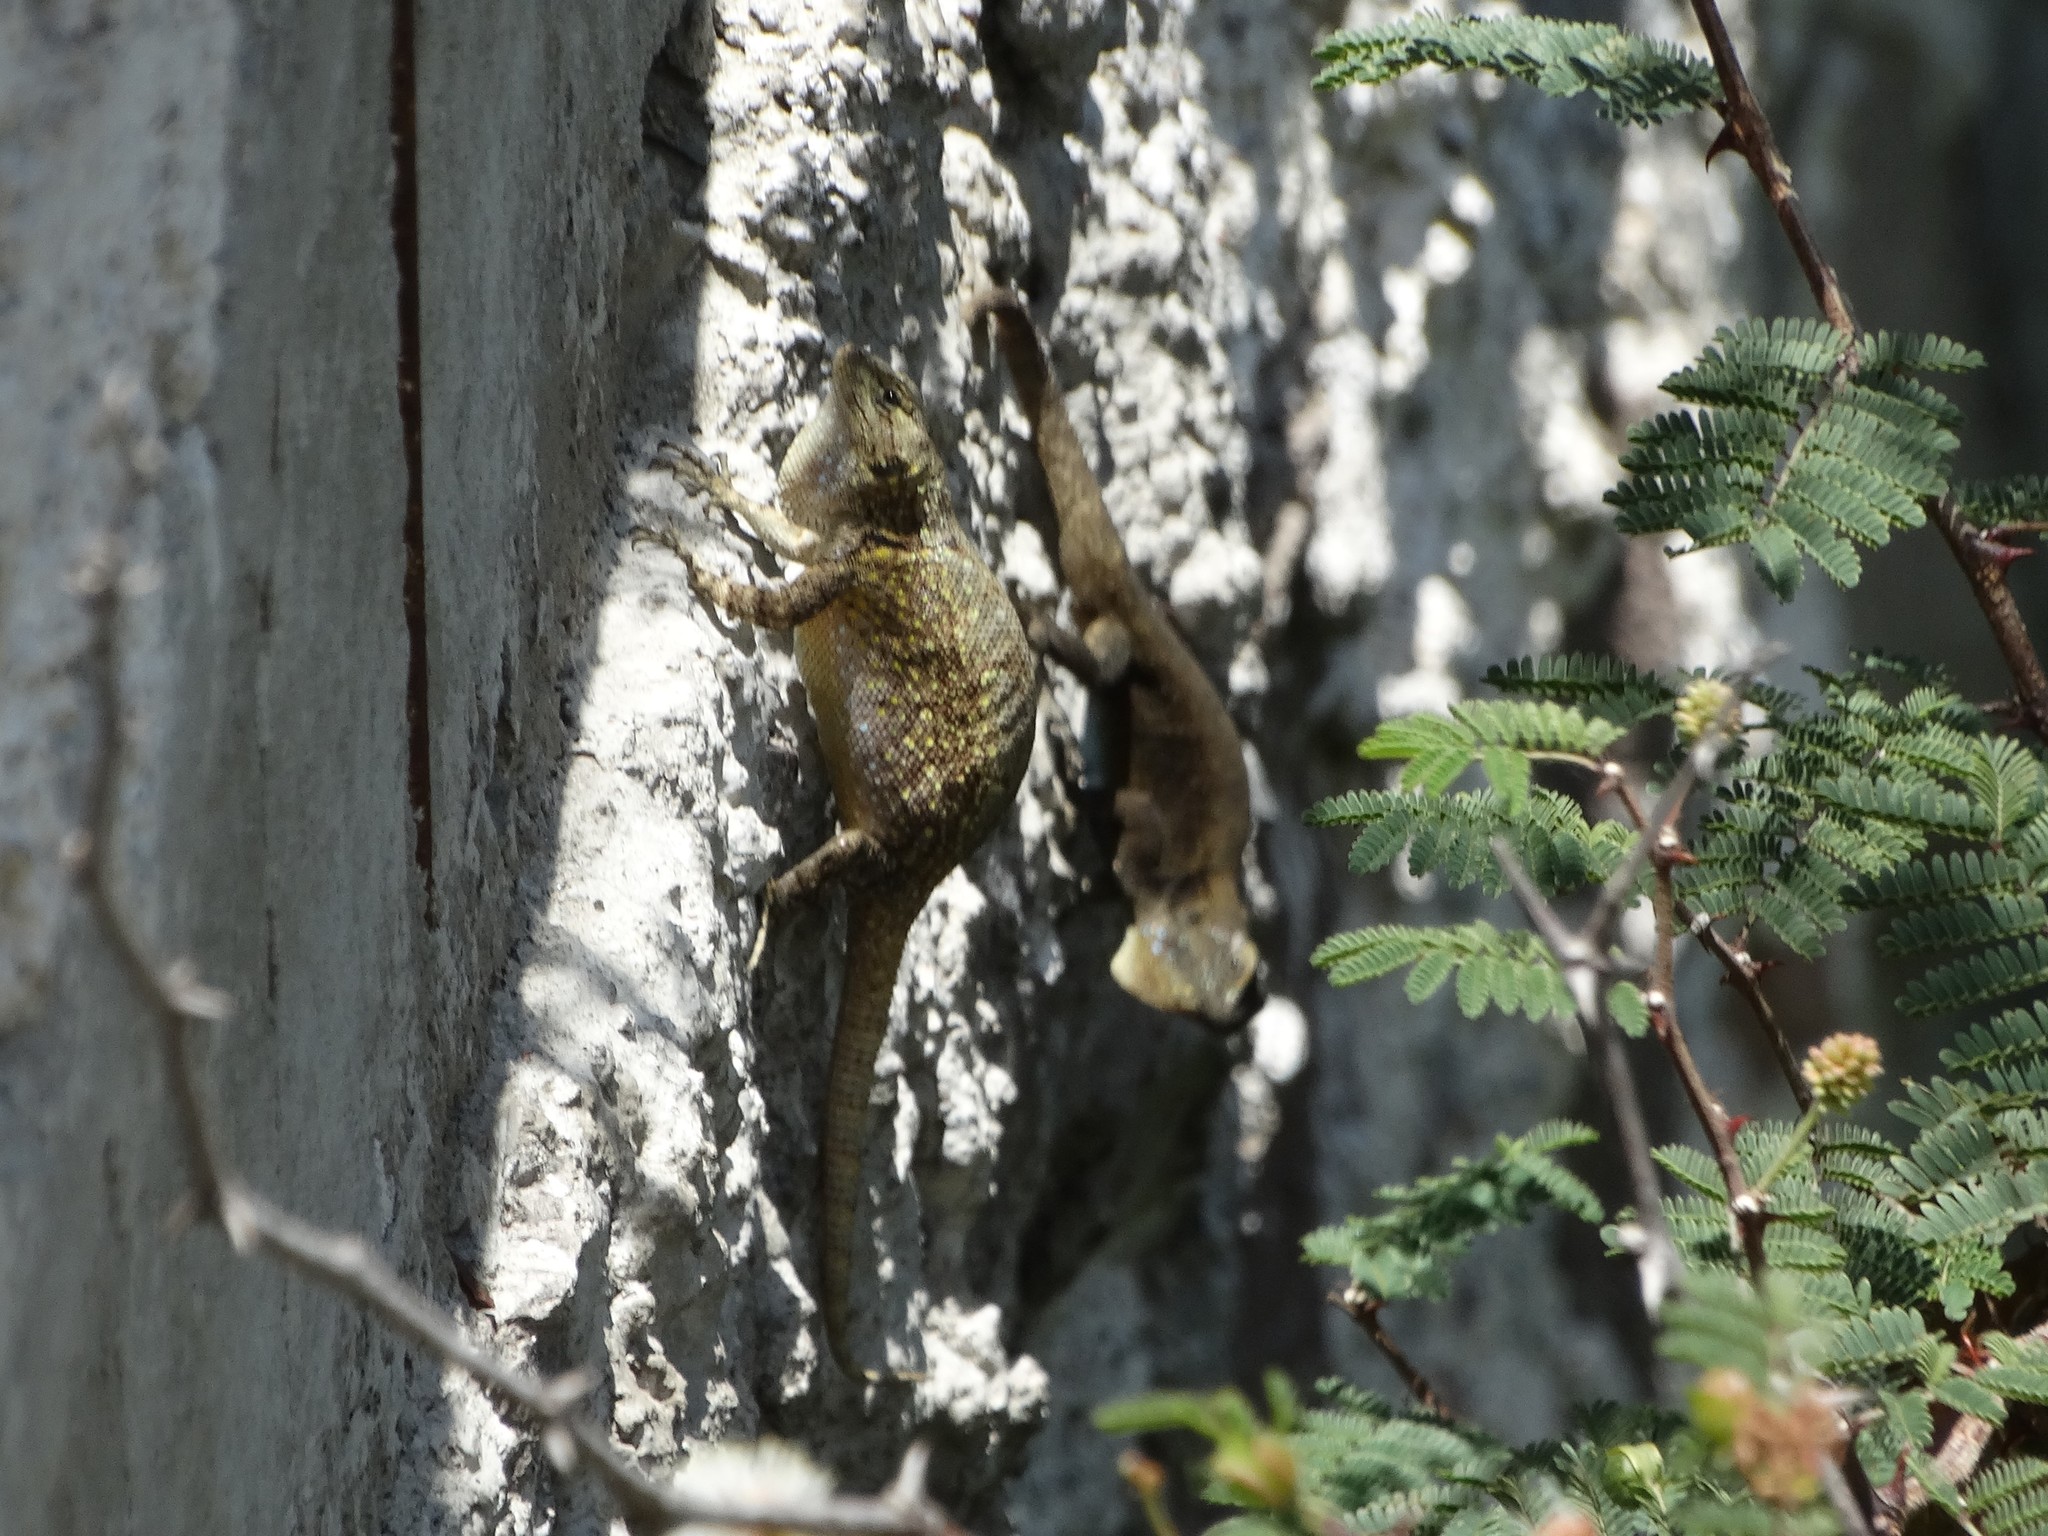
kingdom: Animalia
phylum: Chordata
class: Squamata
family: Phrynosomatidae
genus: Sceloporus
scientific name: Sceloporus grammicus
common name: Mesquite lizard
